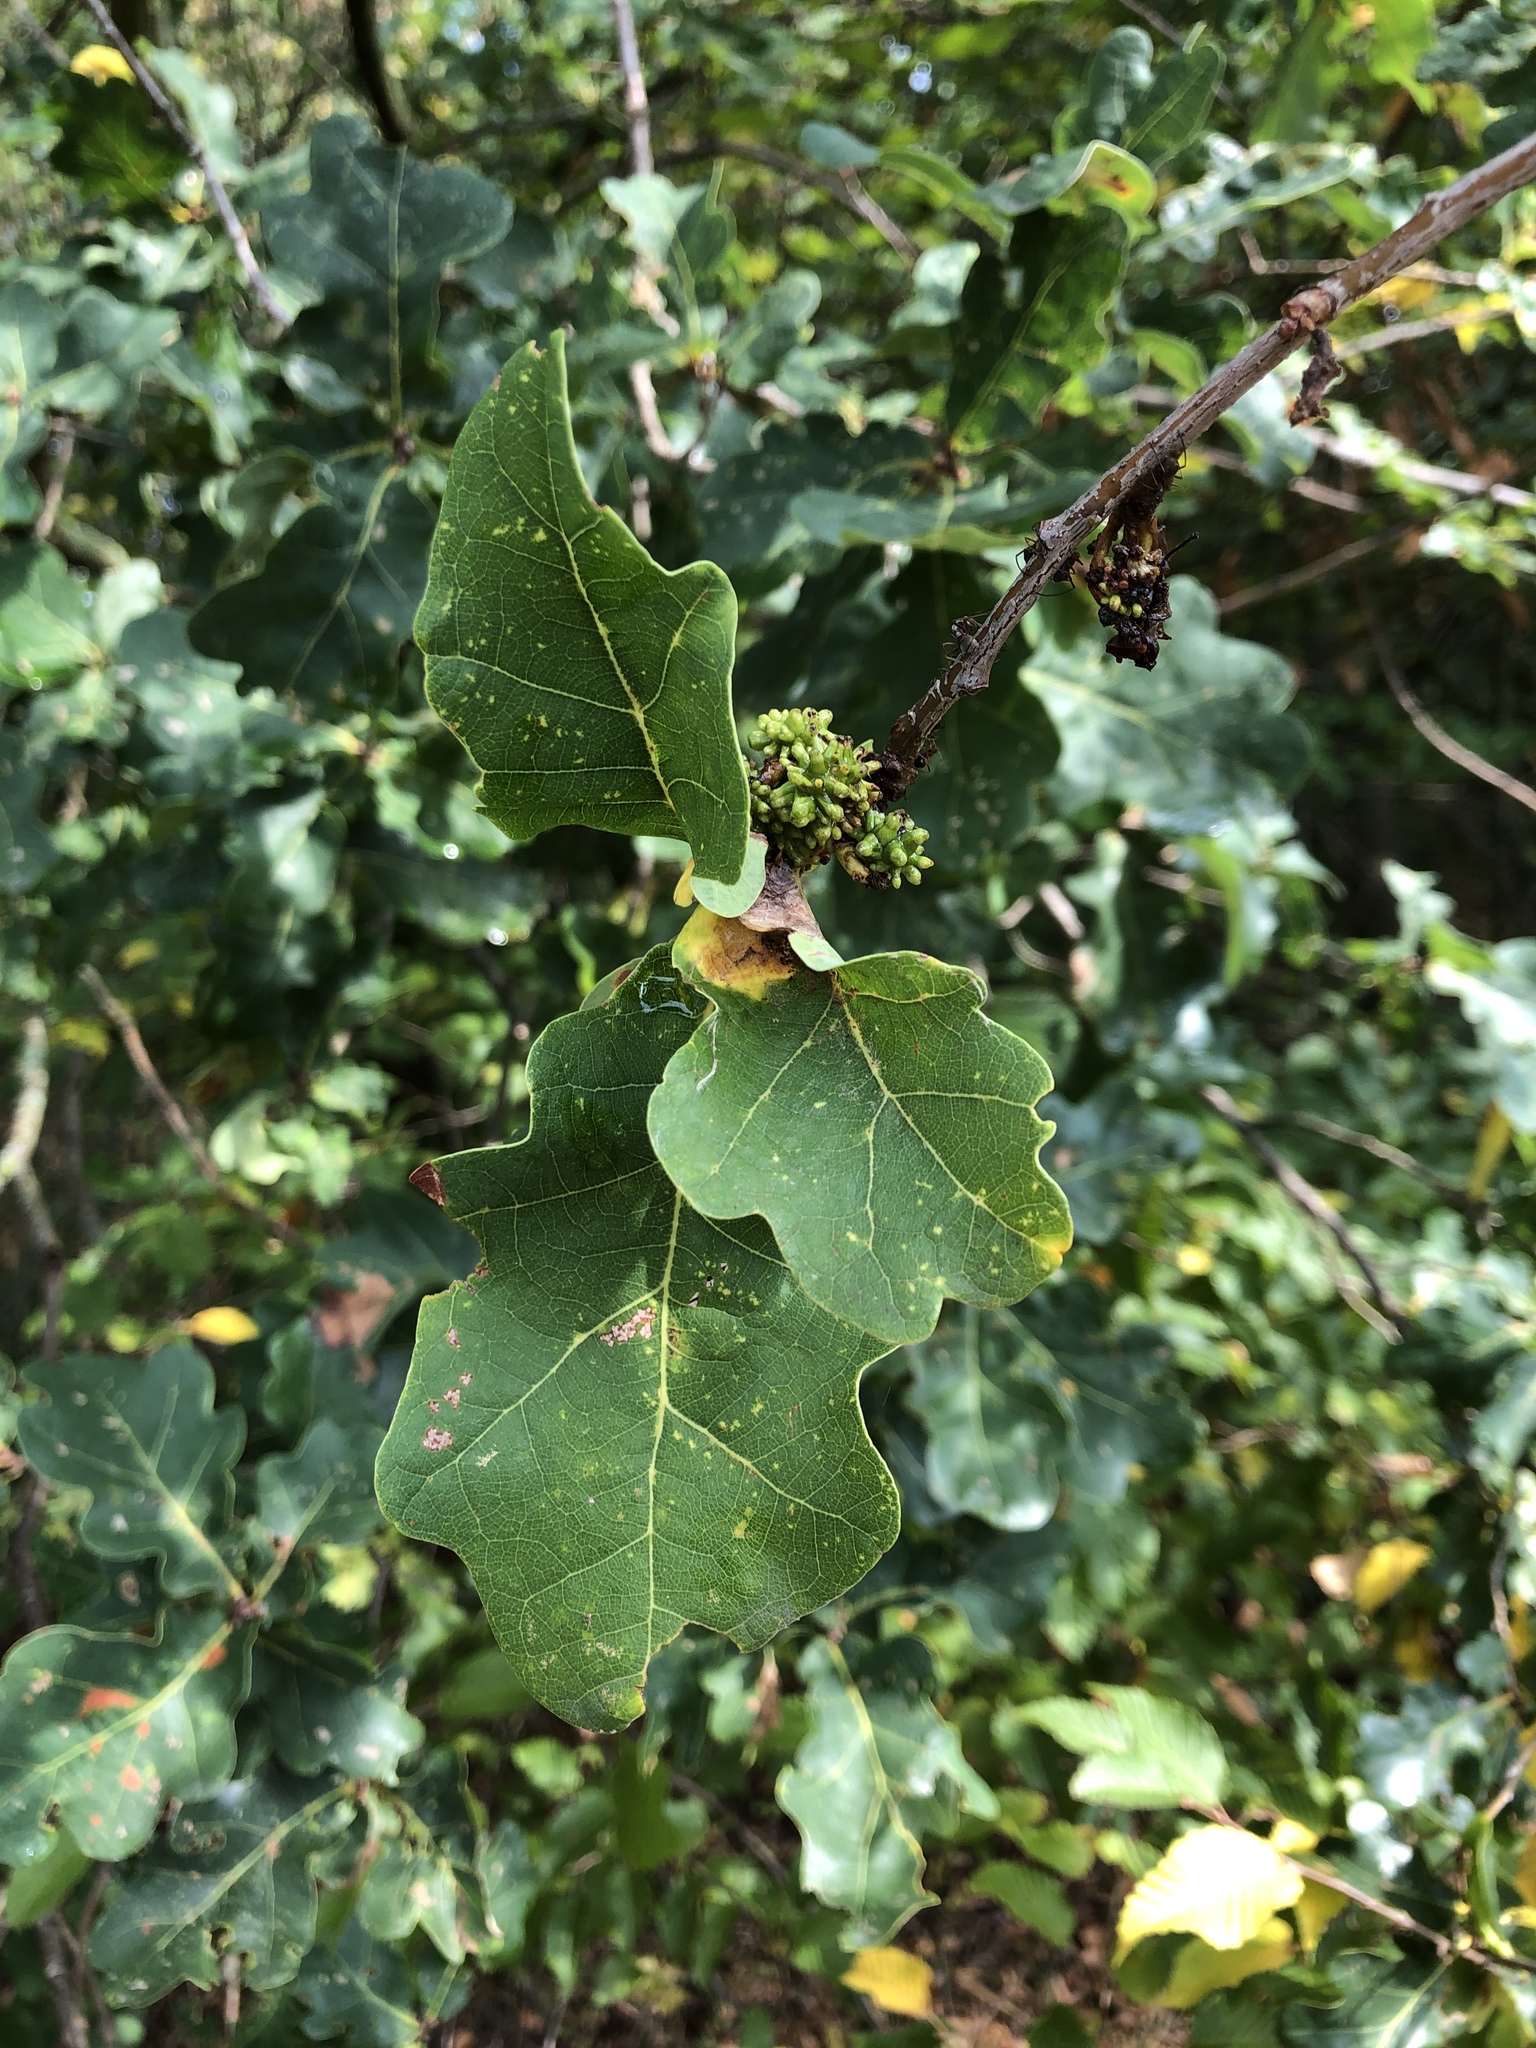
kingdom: Animalia
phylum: Arthropoda
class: Insecta
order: Hymenoptera
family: Cynipidae
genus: Andricus
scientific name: Andricus grossulariae
